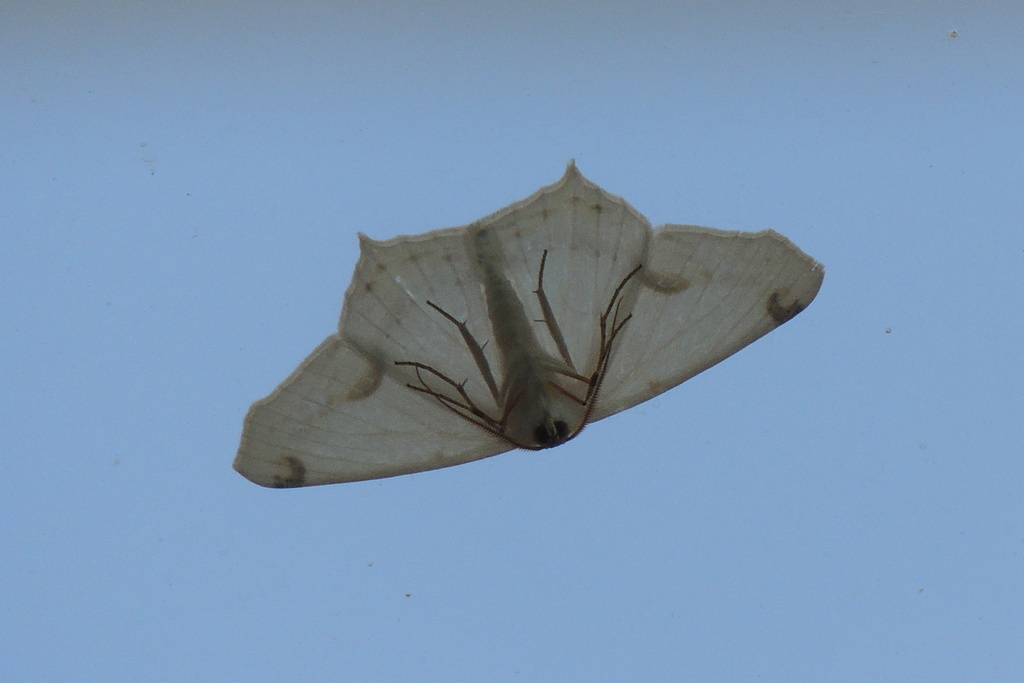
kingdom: Animalia
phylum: Arthropoda
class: Insecta
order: Lepidoptera
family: Geometridae
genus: Sericoptera
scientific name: Sericoptera mahometaria
